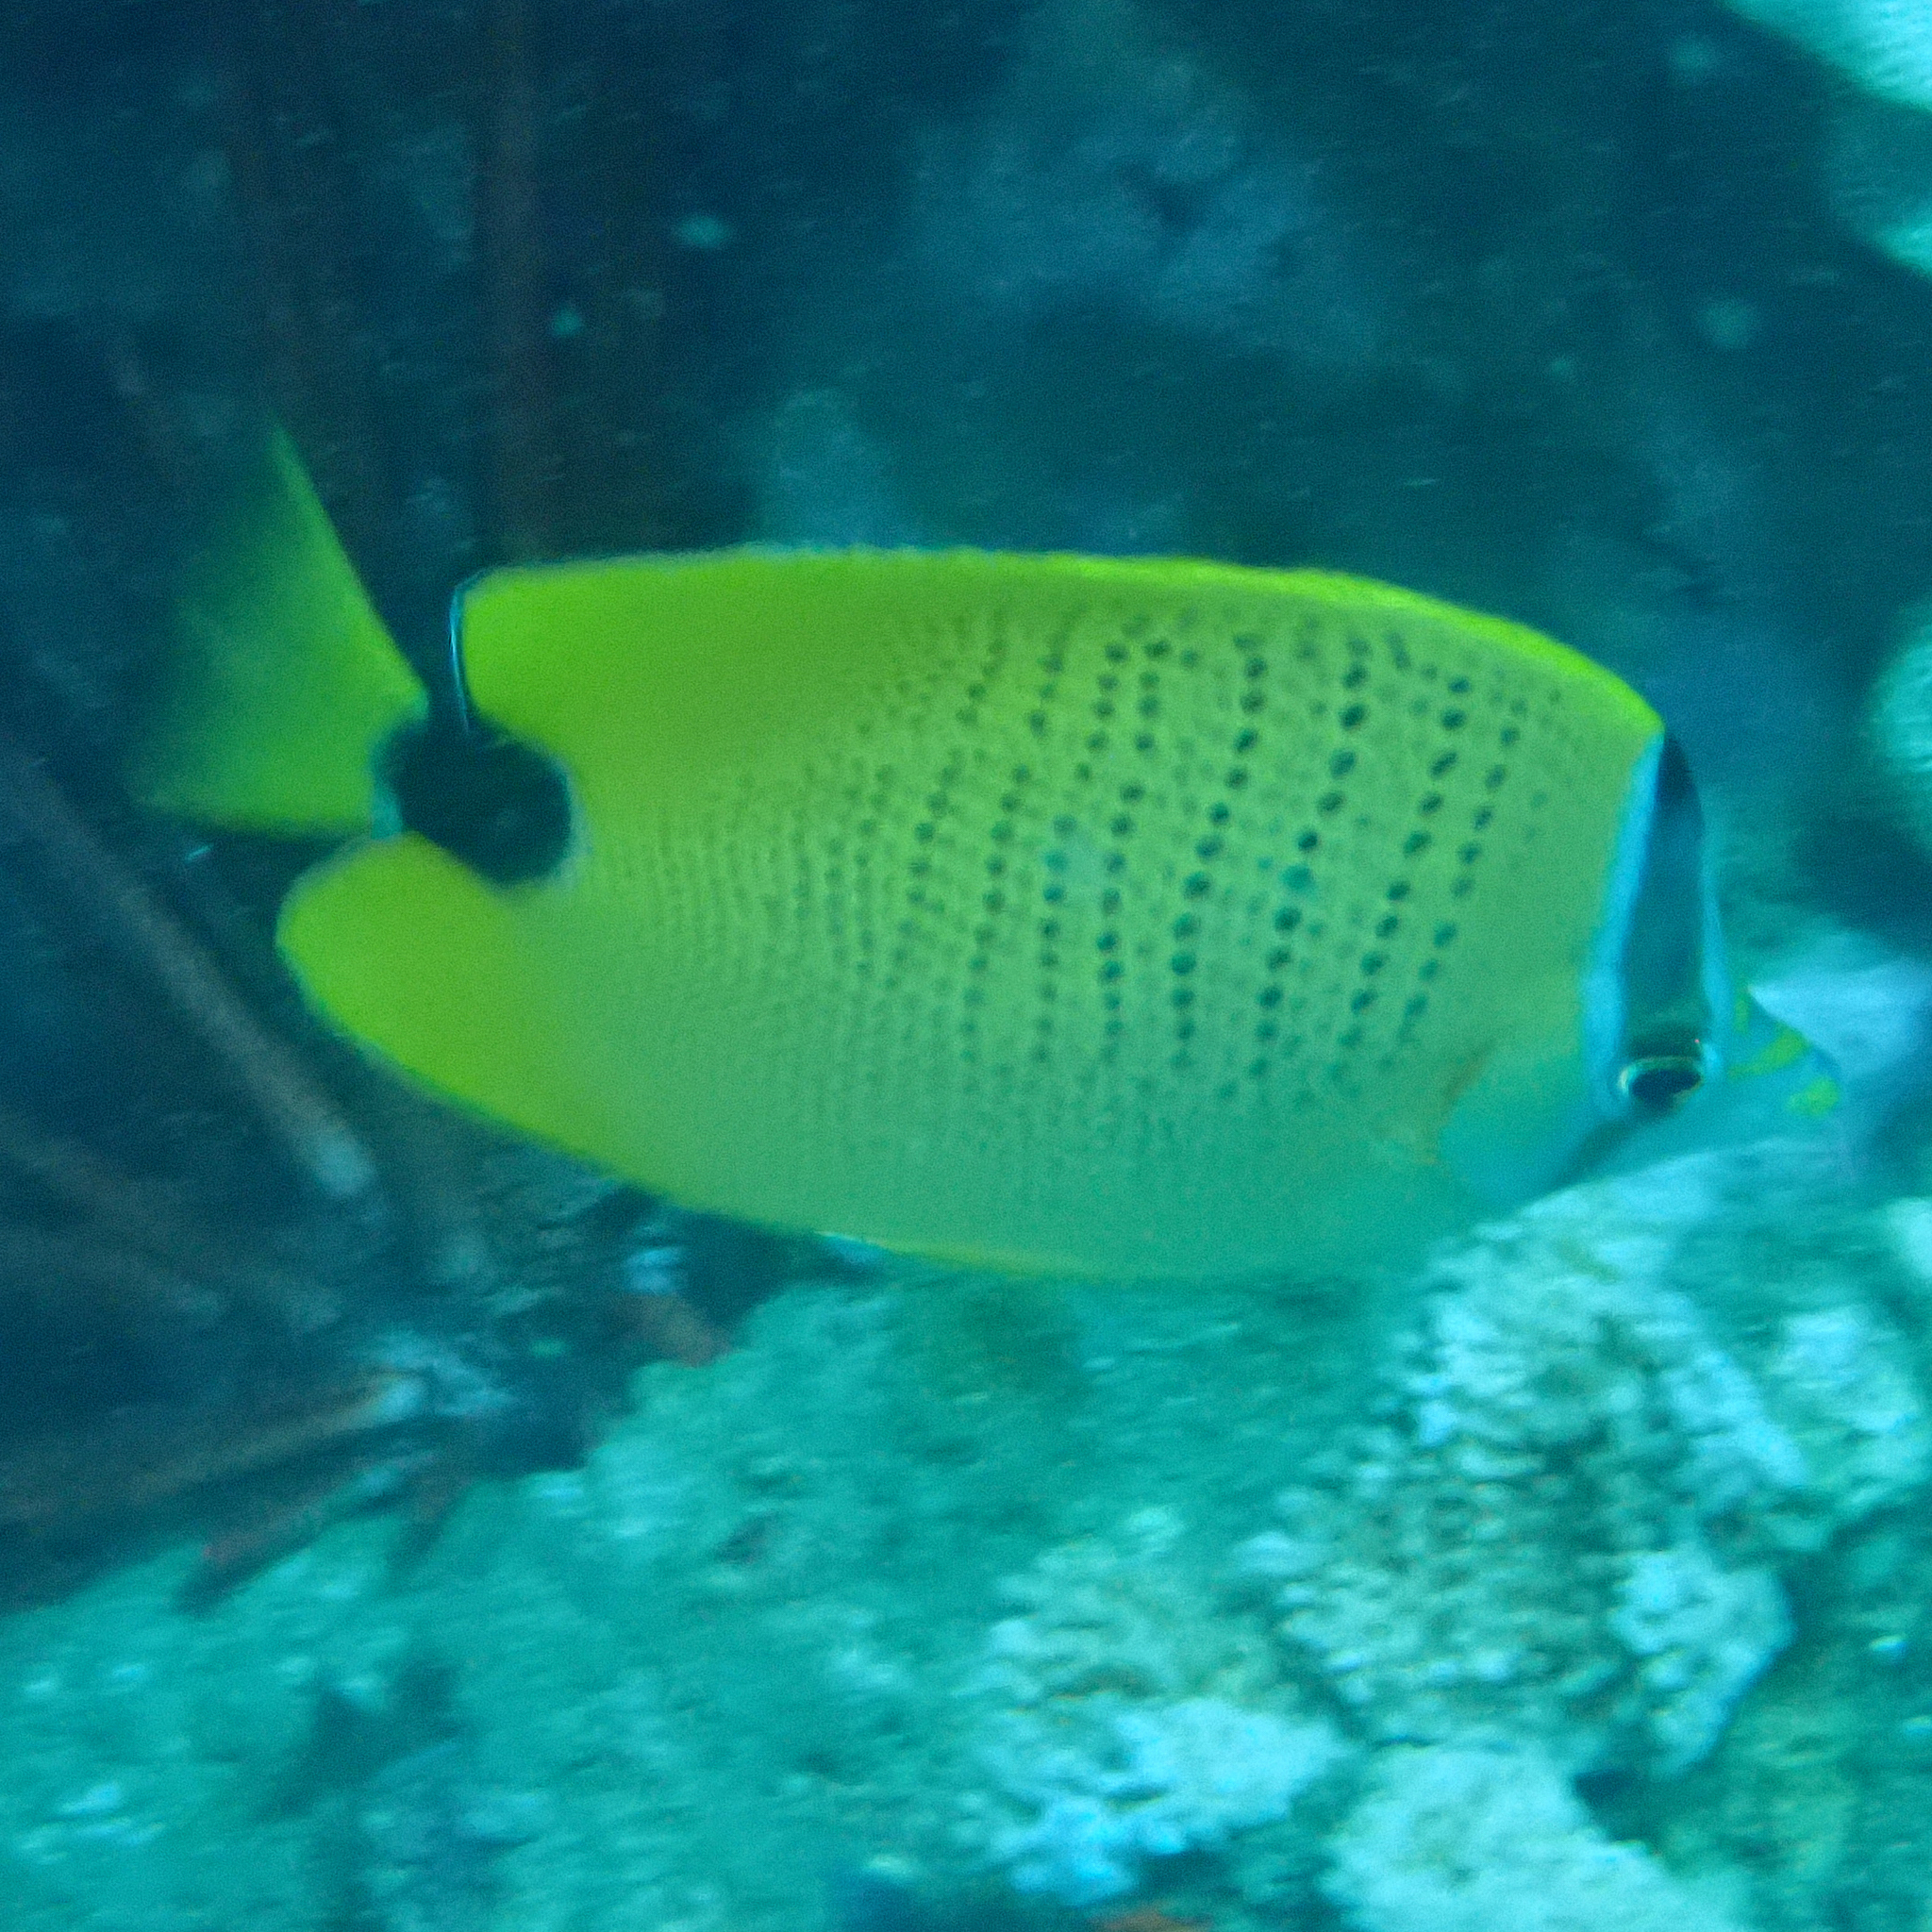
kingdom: Animalia
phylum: Chordata
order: Perciformes
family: Chaetodontidae
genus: Chaetodon
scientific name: Chaetodon miliaris
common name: Lemon butterflyfish
